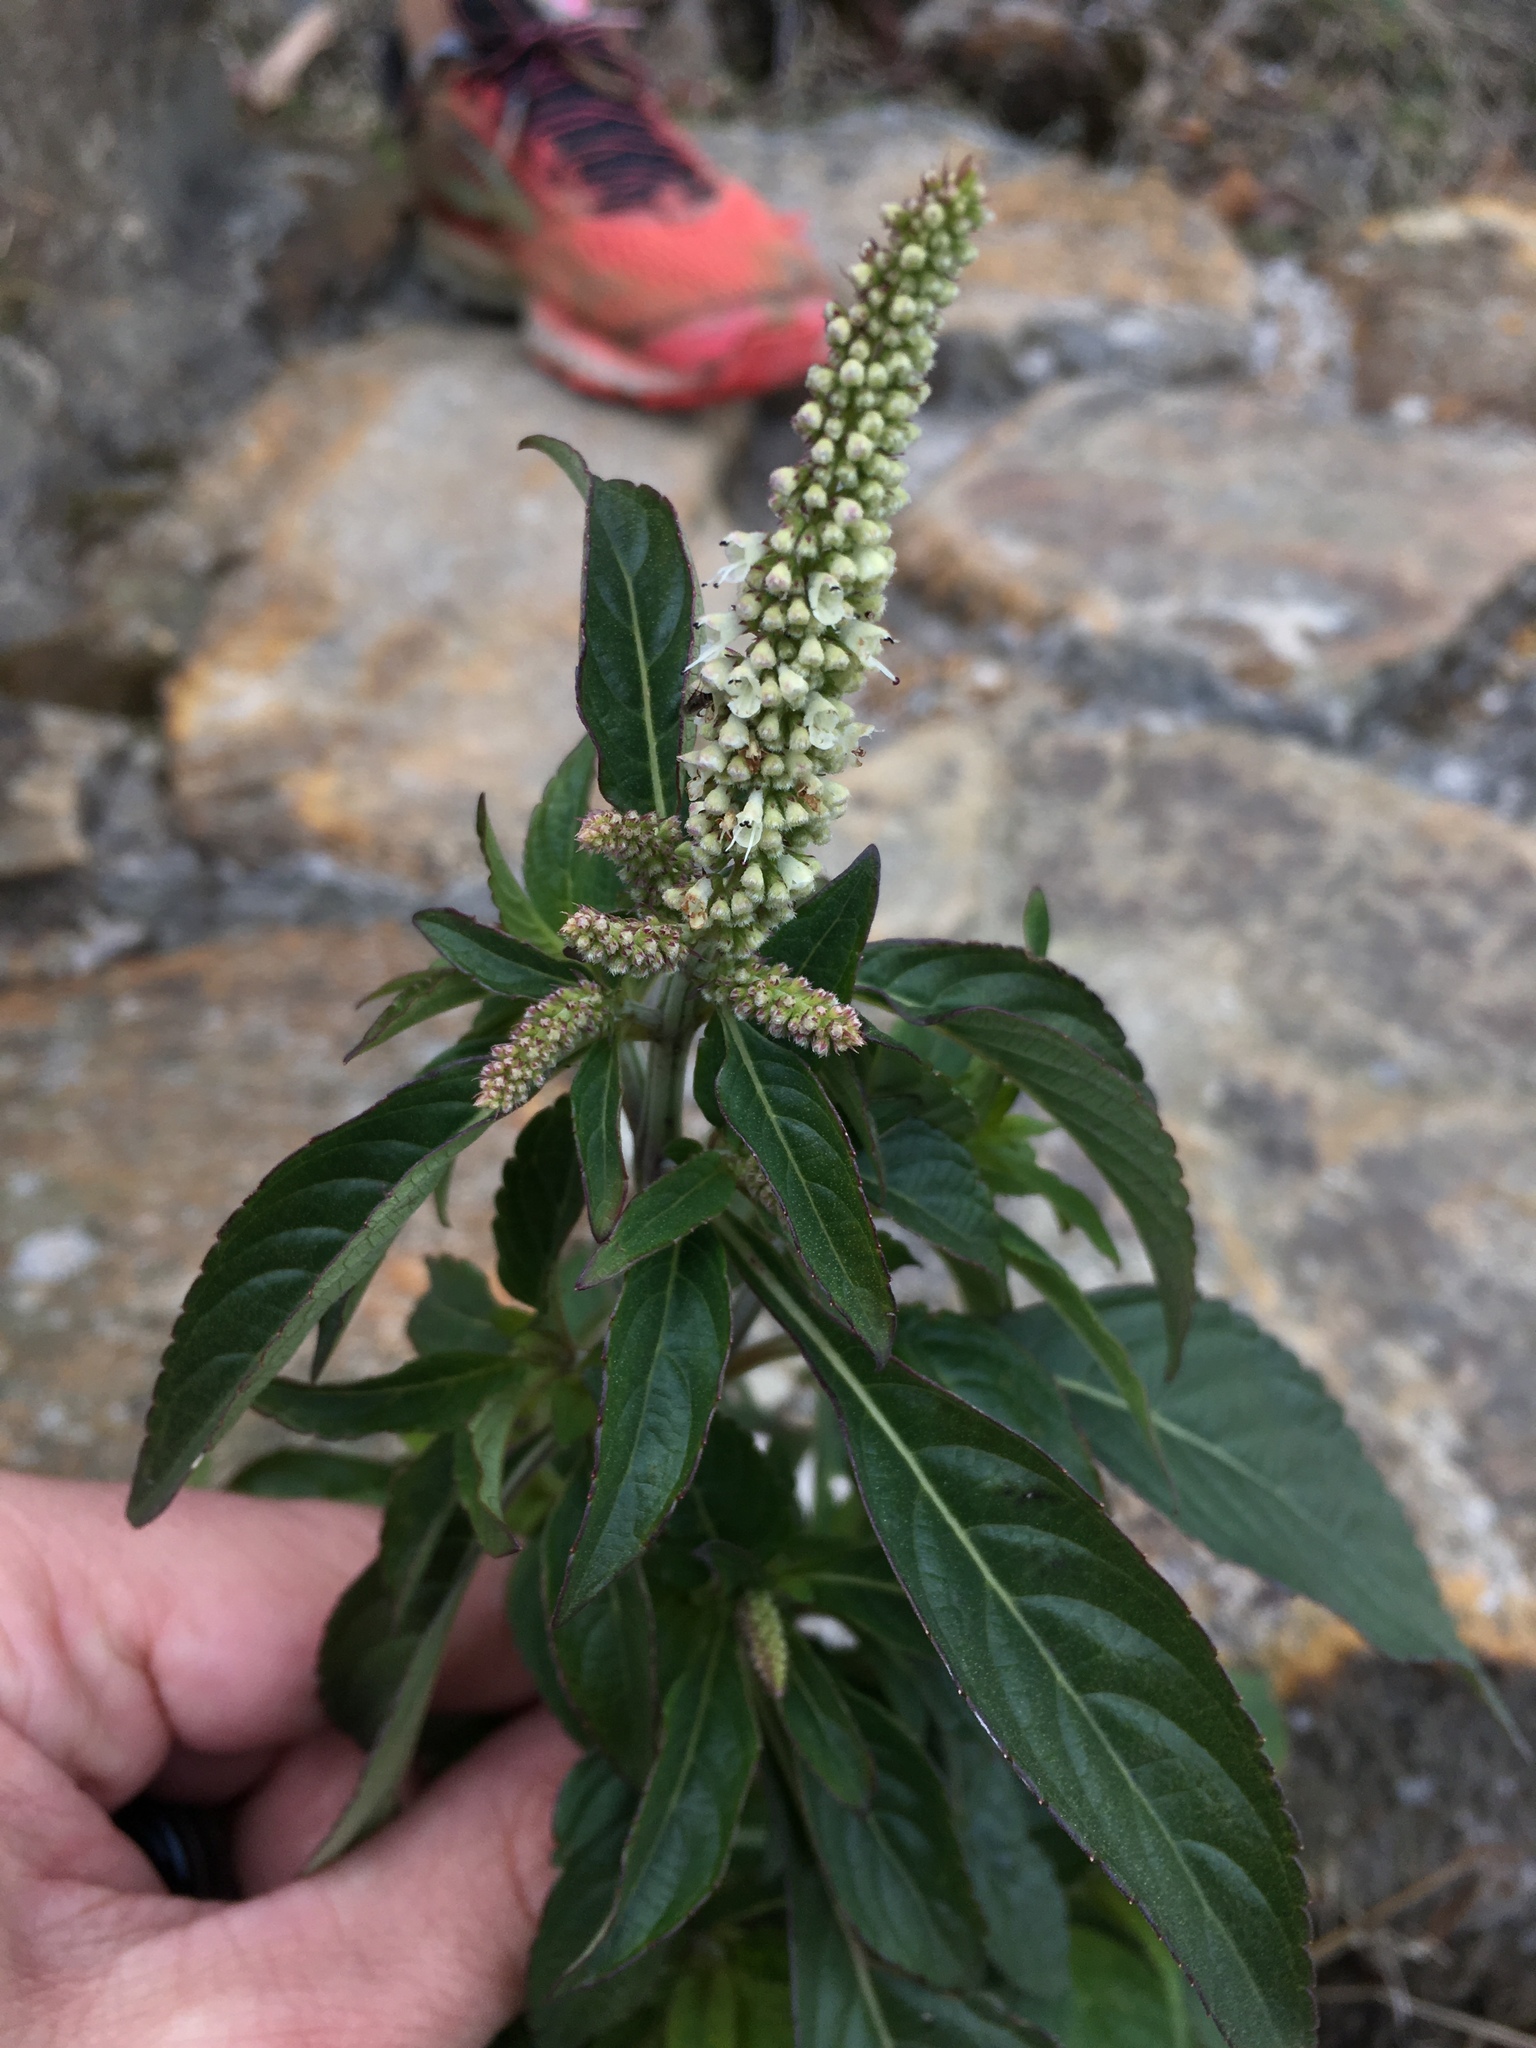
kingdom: Plantae
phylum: Tracheophyta
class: Magnoliopsida
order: Lamiales
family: Lamiaceae
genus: Elsholtzia
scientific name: Elsholtzia blanda
